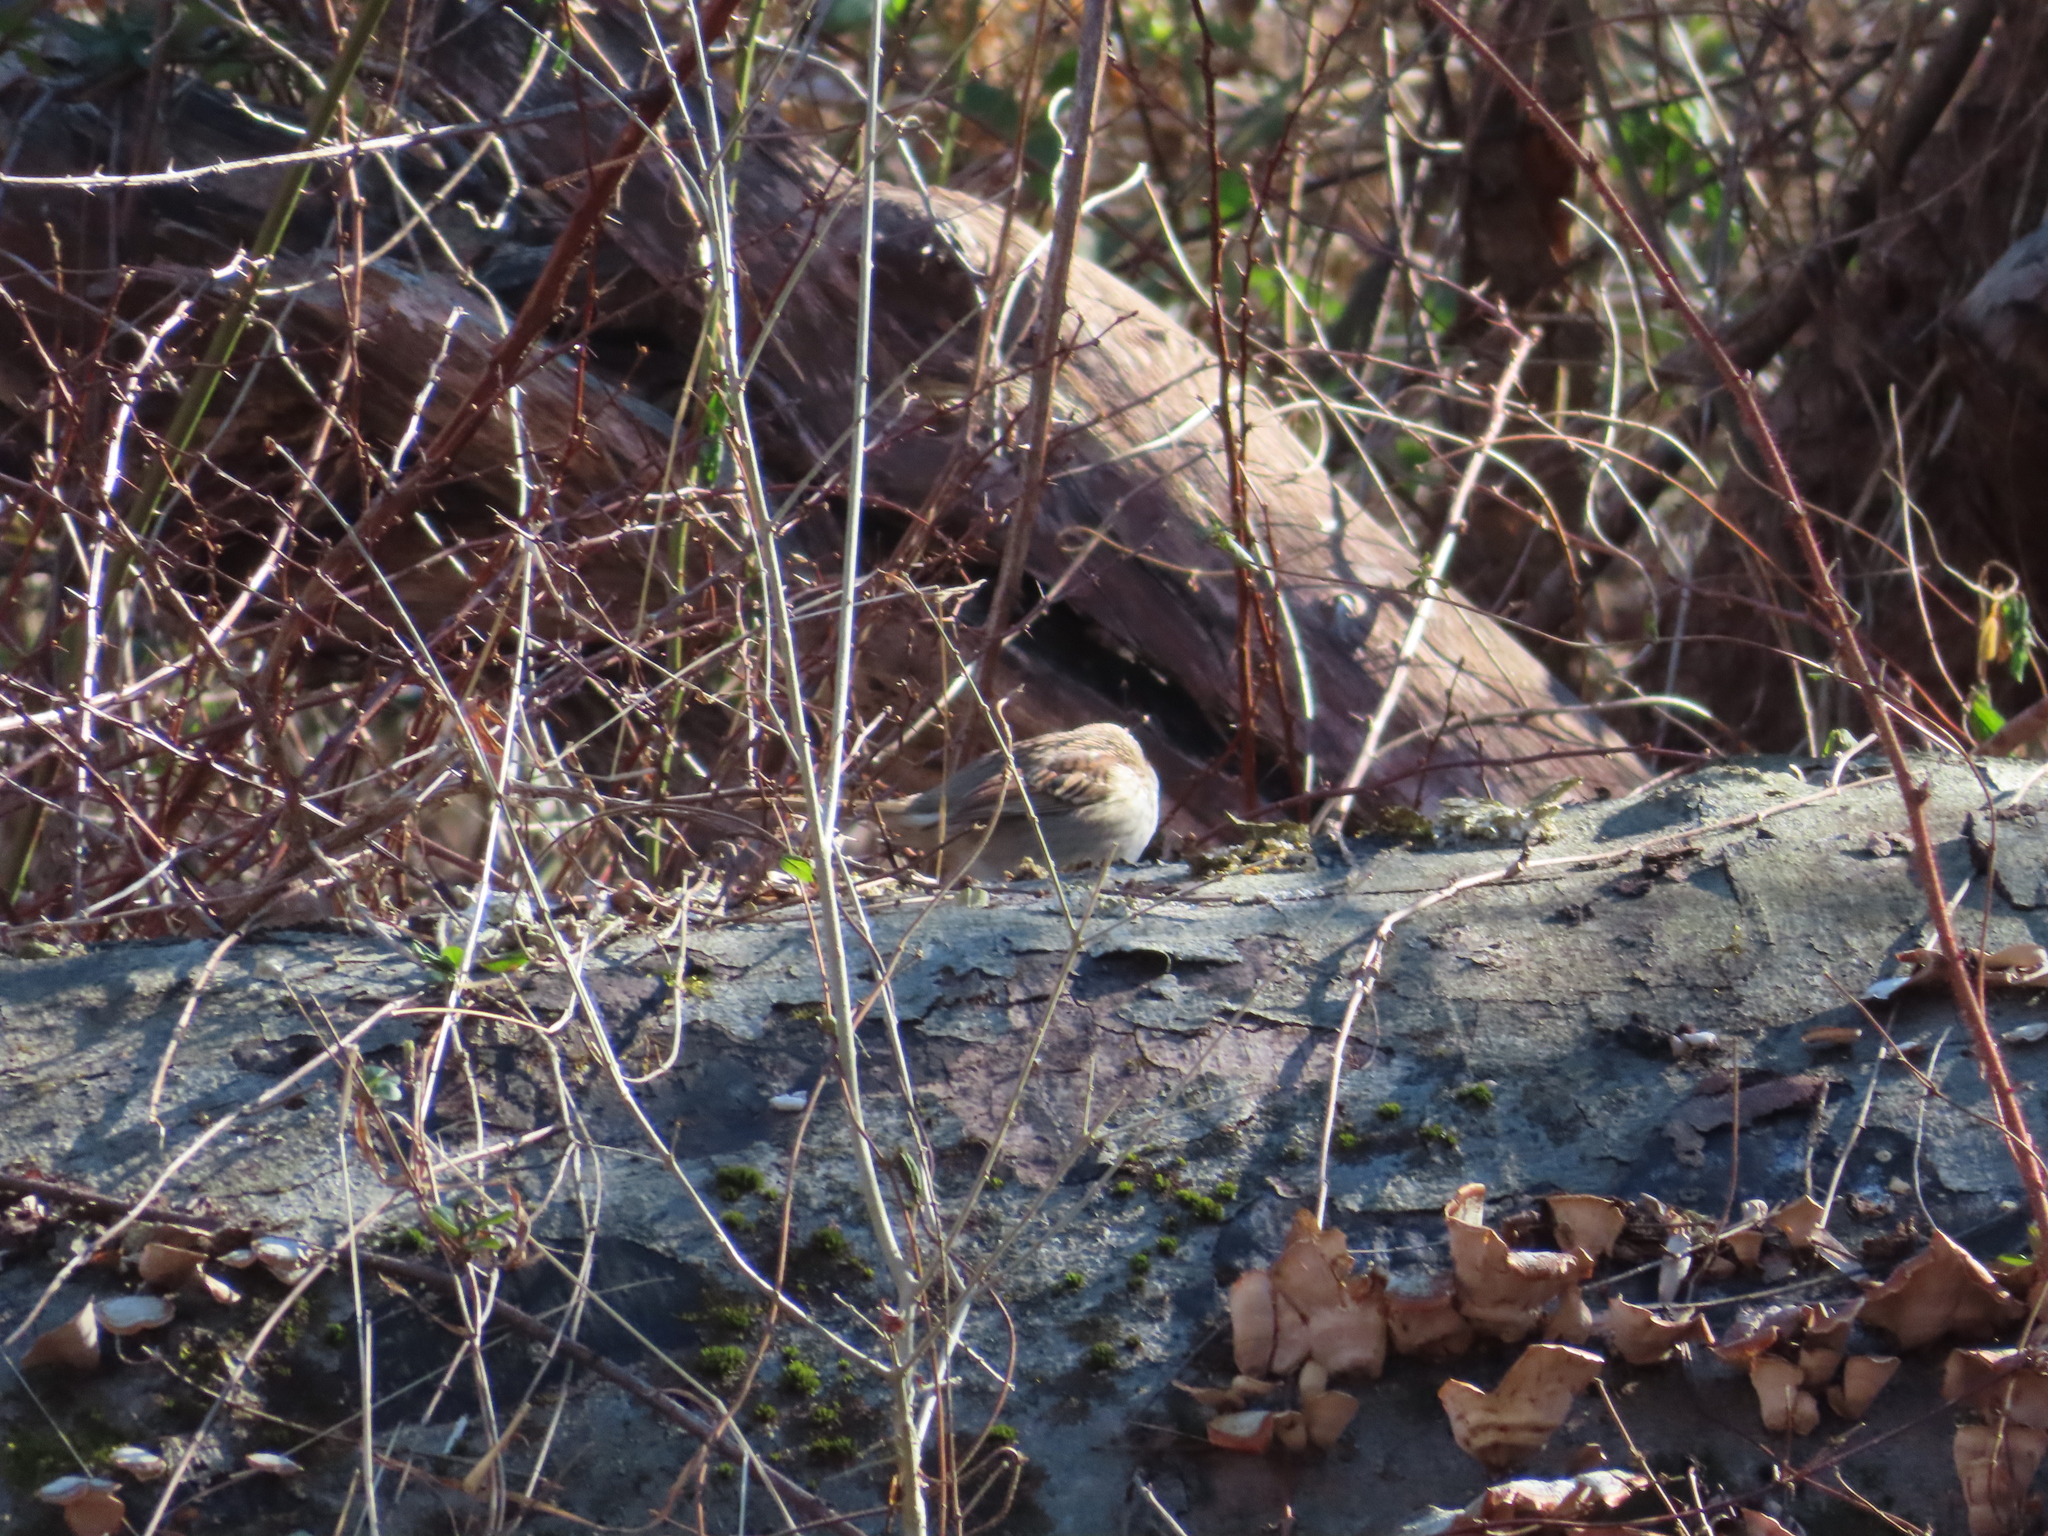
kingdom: Animalia
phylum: Chordata
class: Aves
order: Passeriformes
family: Passerellidae
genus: Zonotrichia
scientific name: Zonotrichia albicollis
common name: White-throated sparrow
